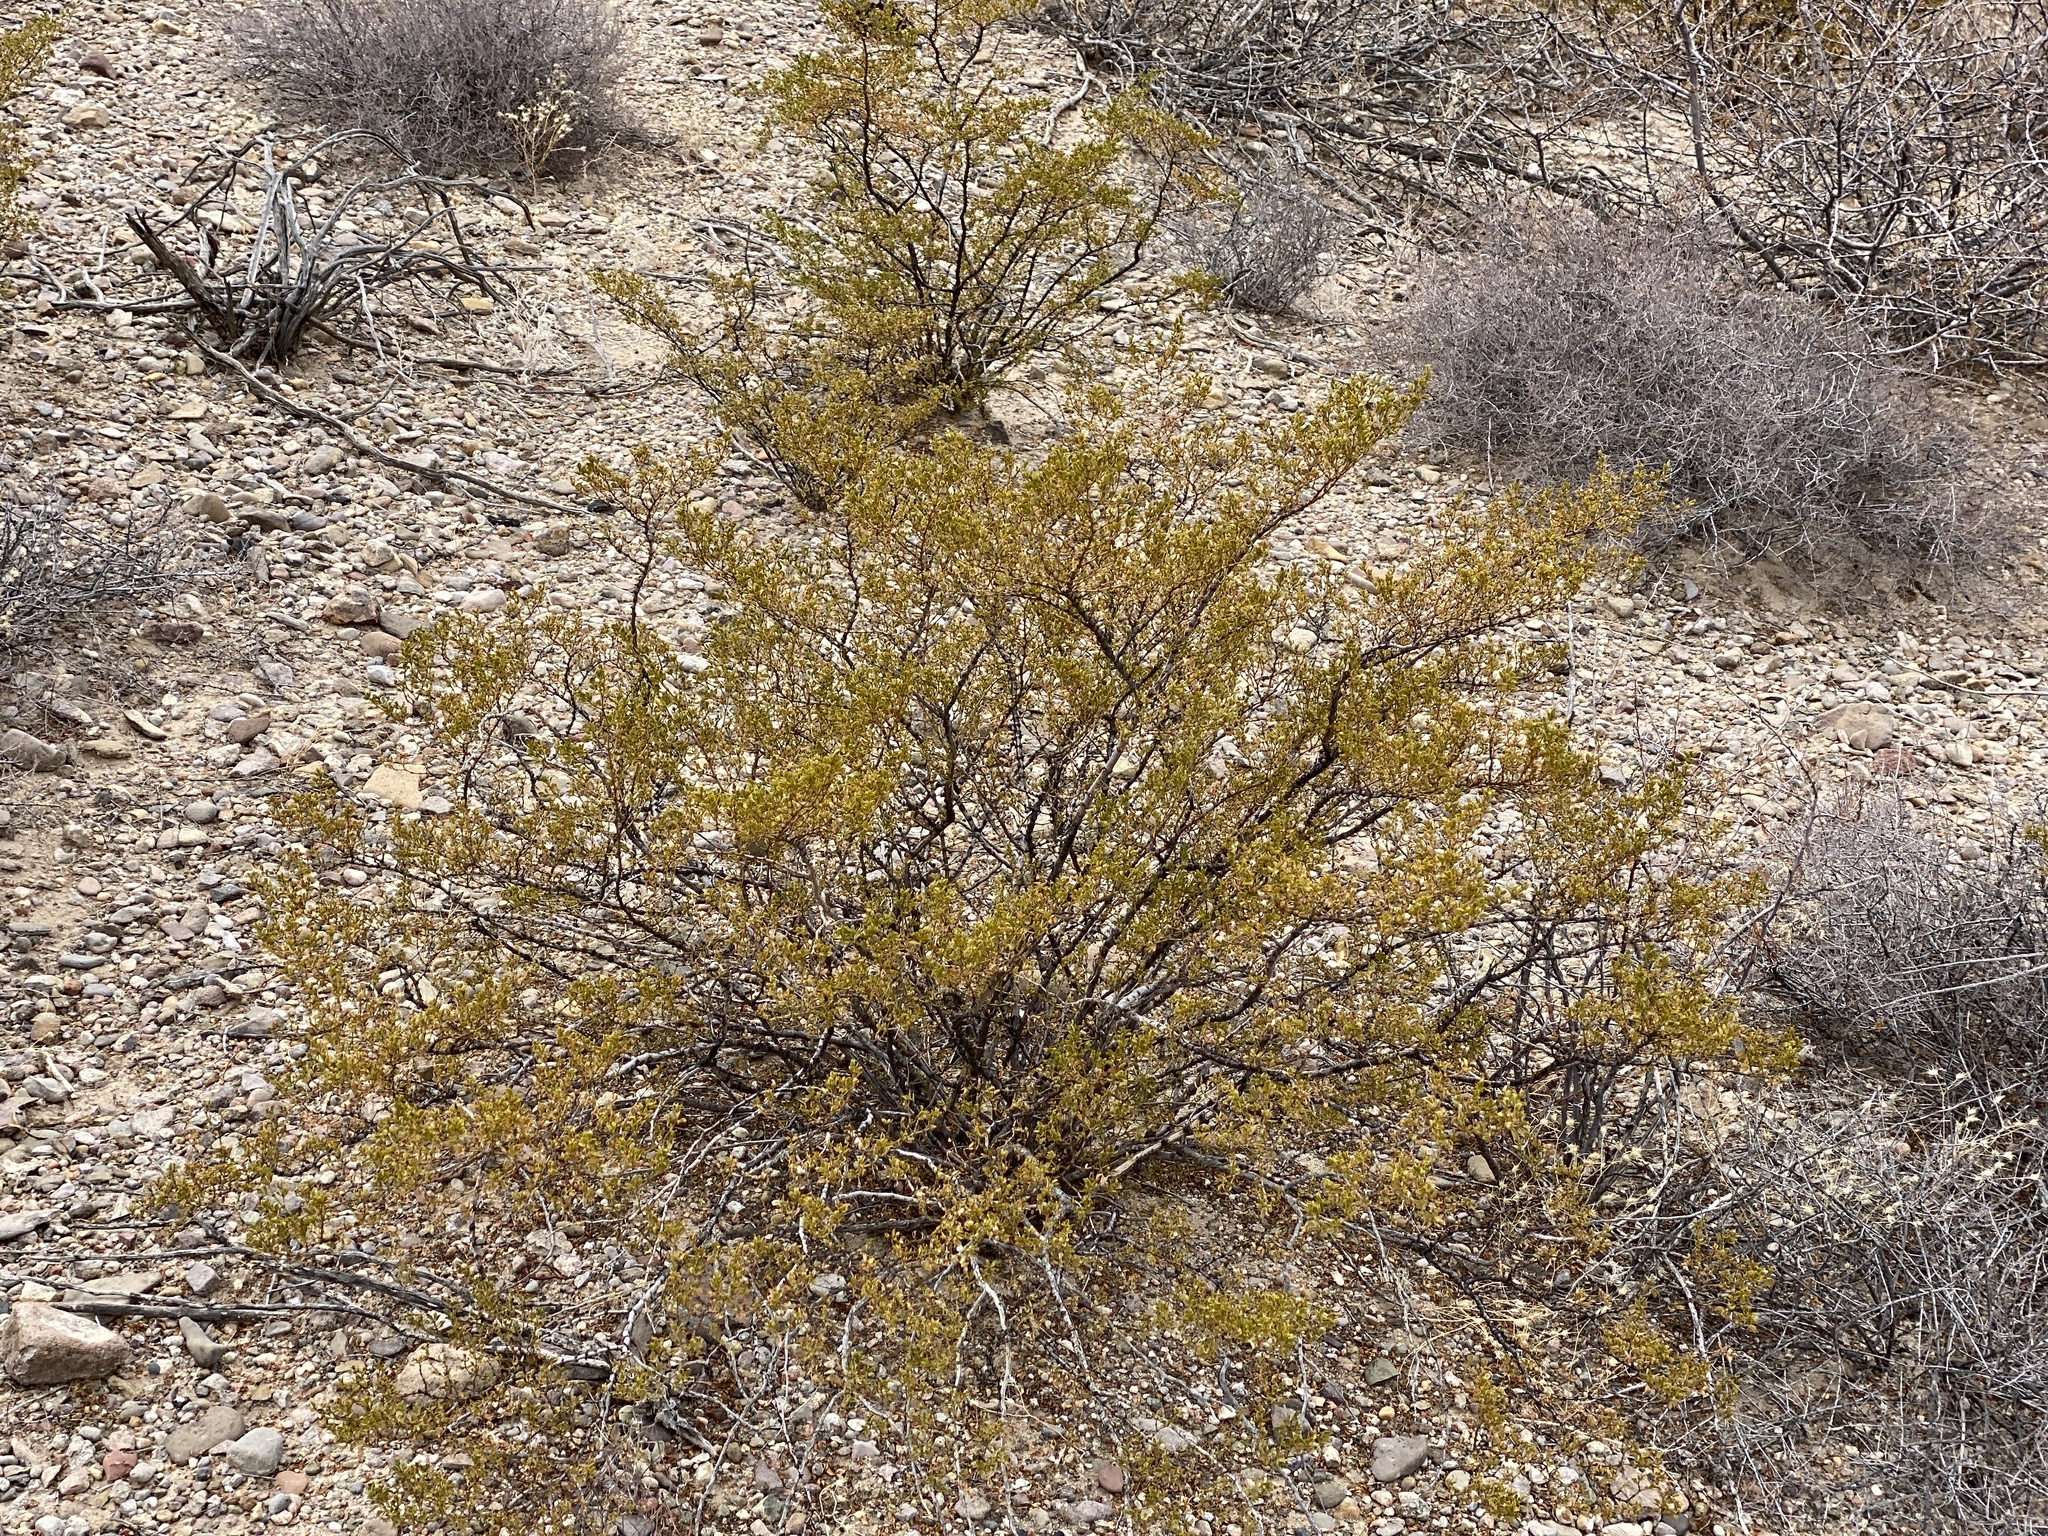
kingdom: Plantae
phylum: Tracheophyta
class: Magnoliopsida
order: Zygophyllales
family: Zygophyllaceae
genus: Larrea
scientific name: Larrea tridentata
